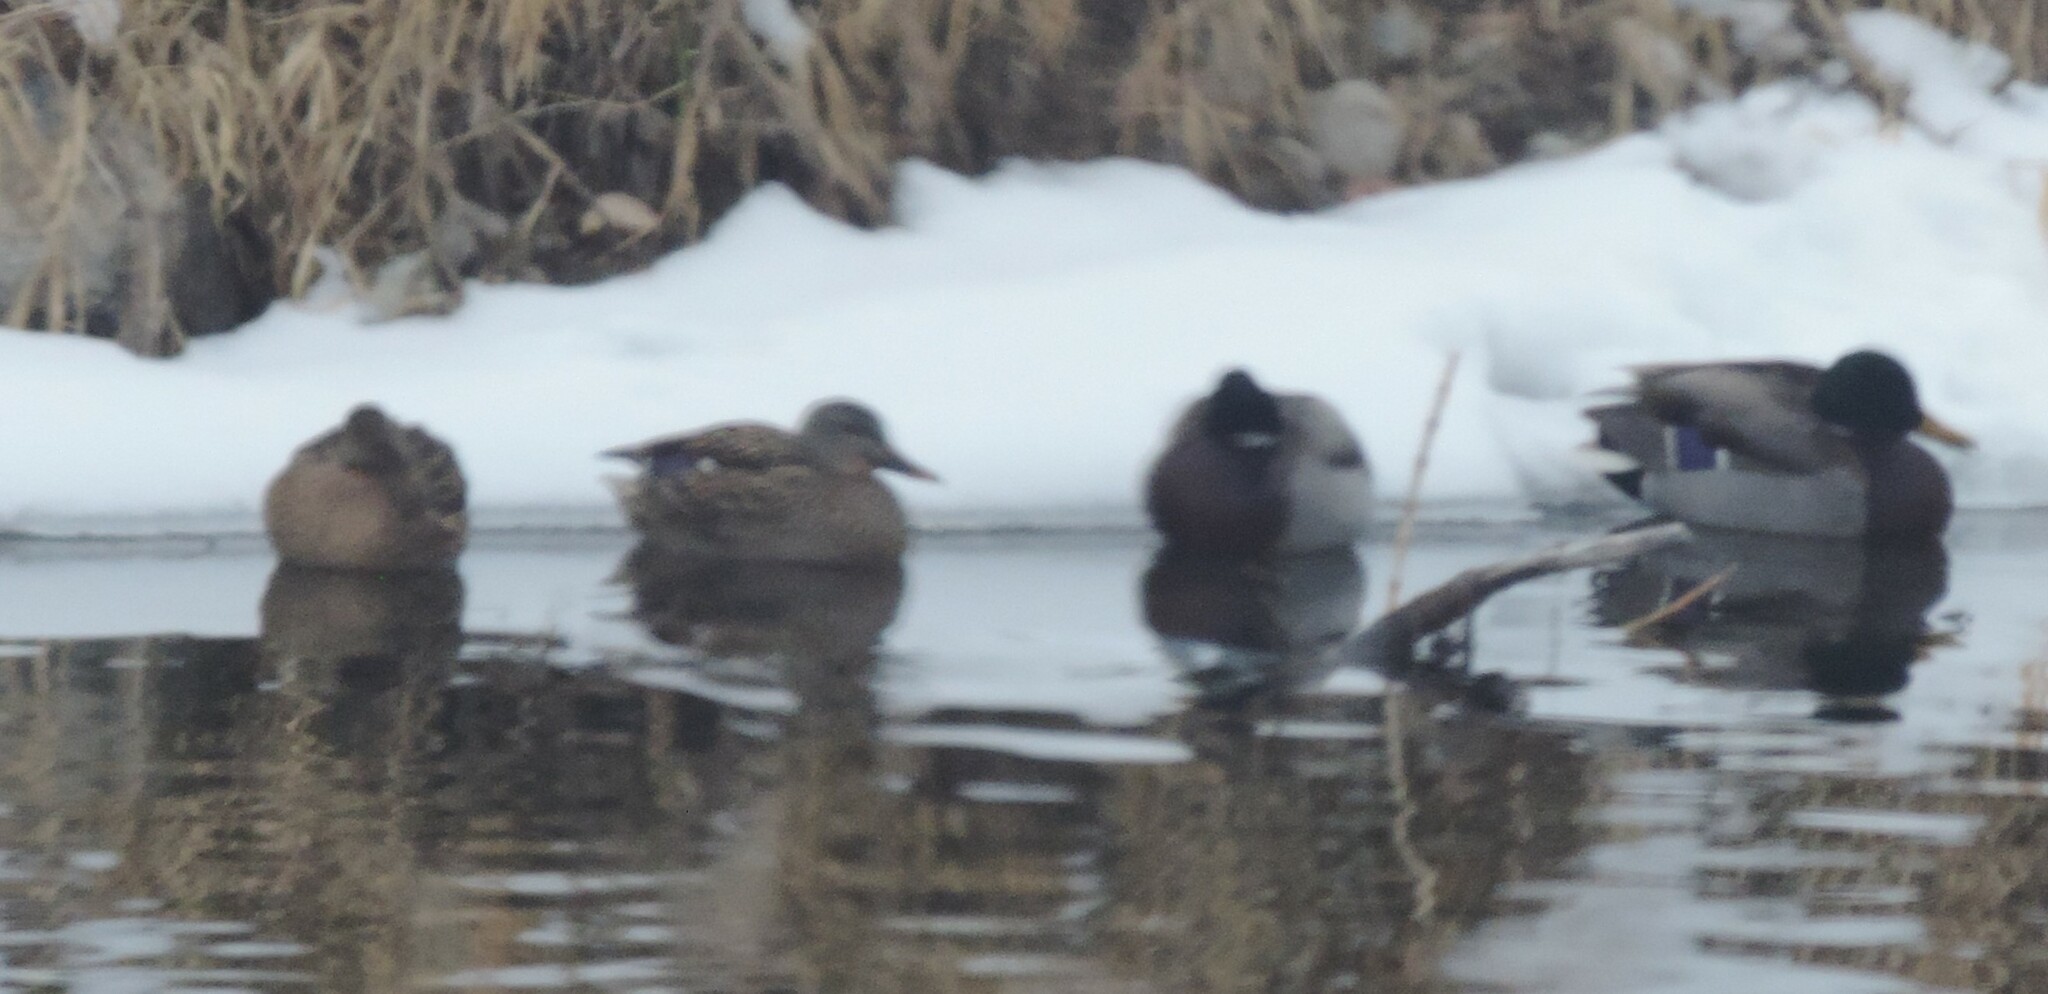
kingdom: Animalia
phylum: Chordata
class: Aves
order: Anseriformes
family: Anatidae
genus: Anas
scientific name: Anas platyrhynchos
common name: Mallard
